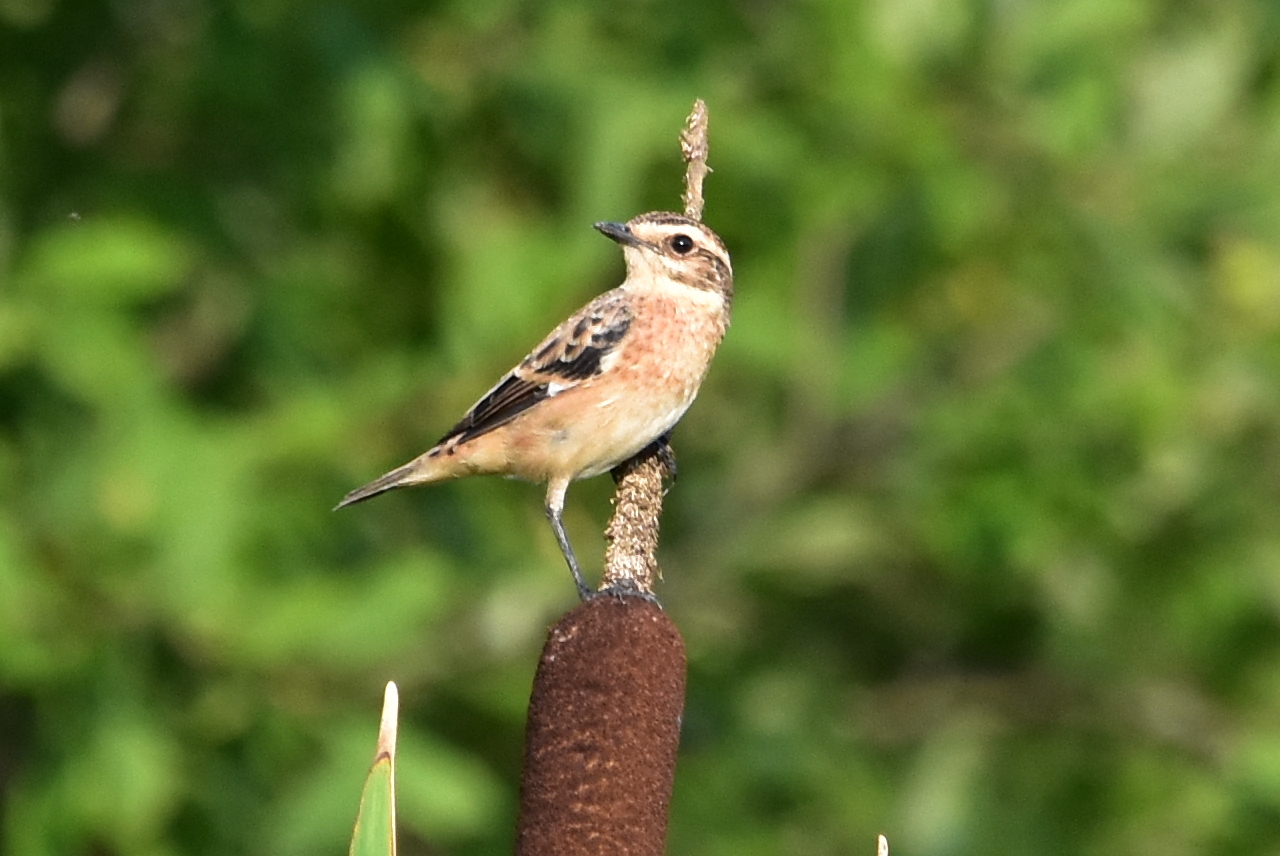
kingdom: Animalia
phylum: Chordata
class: Aves
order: Passeriformes
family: Muscicapidae
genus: Saxicola
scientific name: Saxicola maurus
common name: Siberian stonechat
